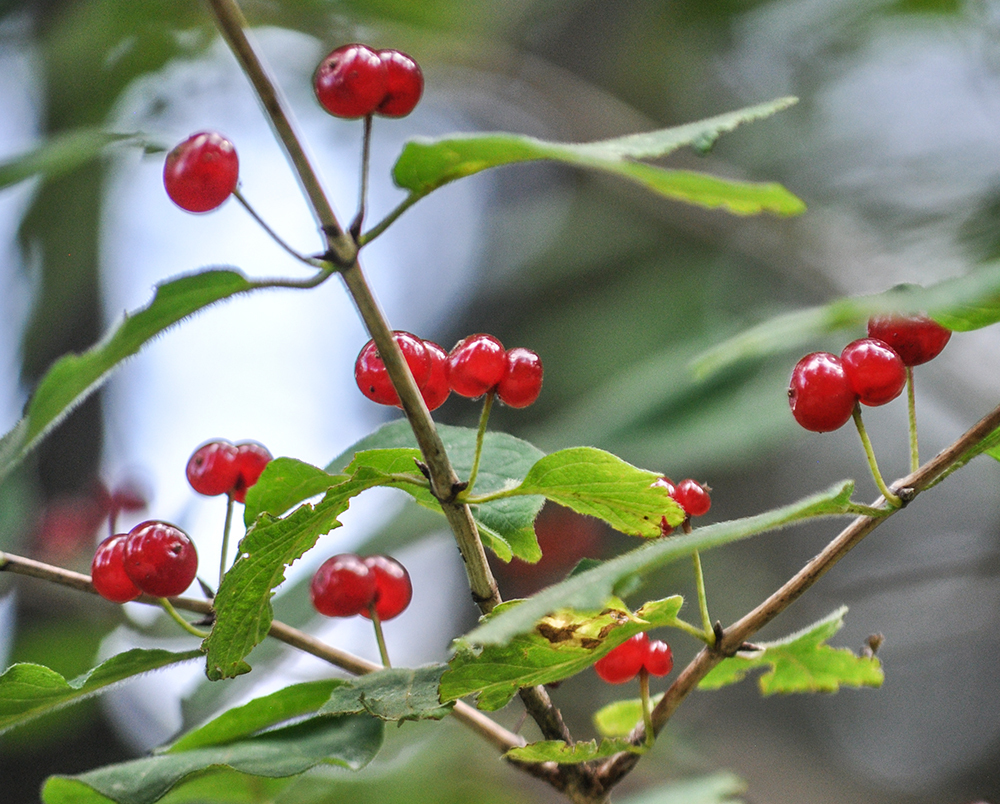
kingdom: Plantae
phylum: Tracheophyta
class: Magnoliopsida
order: Dipsacales
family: Caprifoliaceae
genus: Lonicera
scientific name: Lonicera xylosteum
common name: Fly honeysuckle
